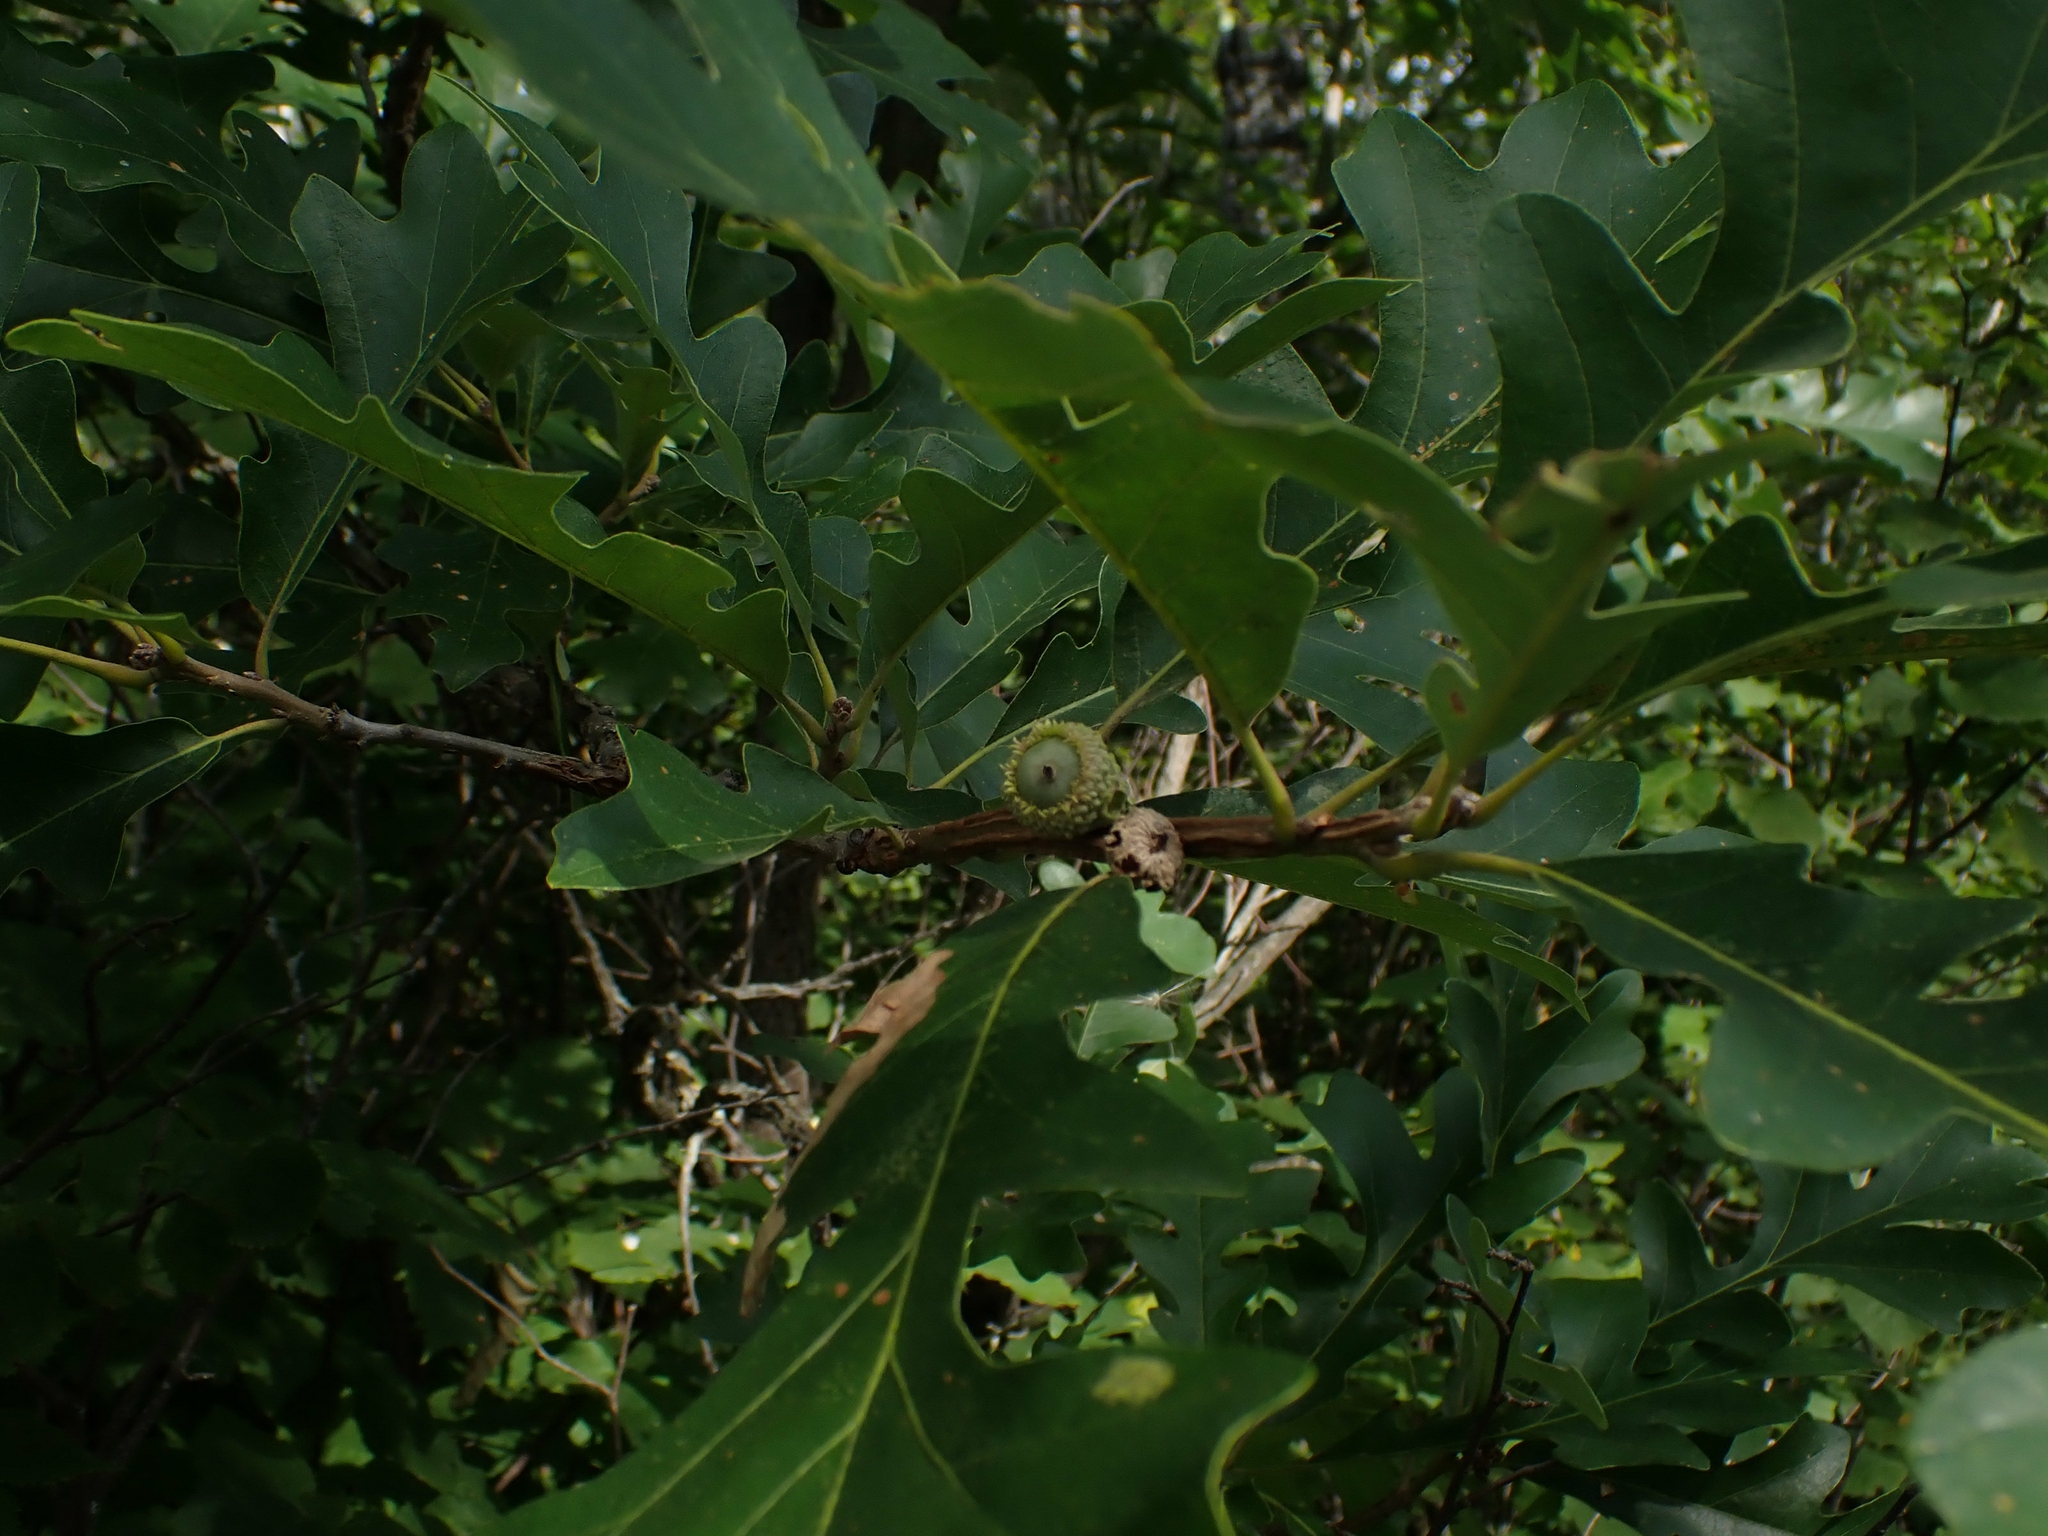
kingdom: Plantae
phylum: Tracheophyta
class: Magnoliopsida
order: Fagales
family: Fagaceae
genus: Quercus
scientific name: Quercus macrocarpa
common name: Bur oak
